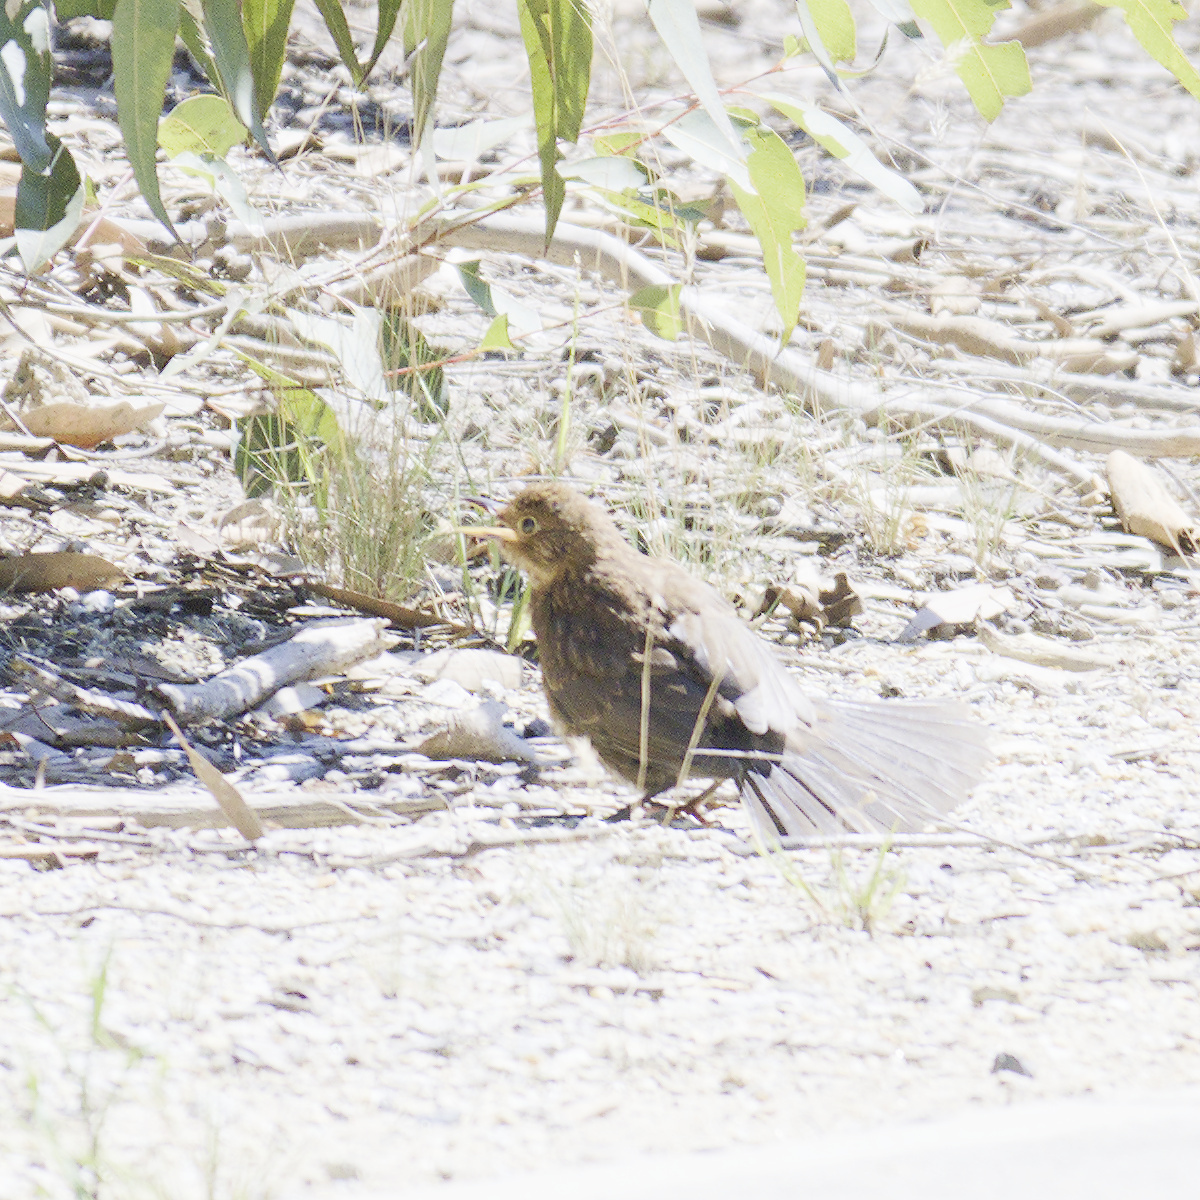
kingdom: Animalia
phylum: Chordata
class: Aves
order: Passeriformes
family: Turdidae
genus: Turdus
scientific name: Turdus merula
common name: Common blackbird
